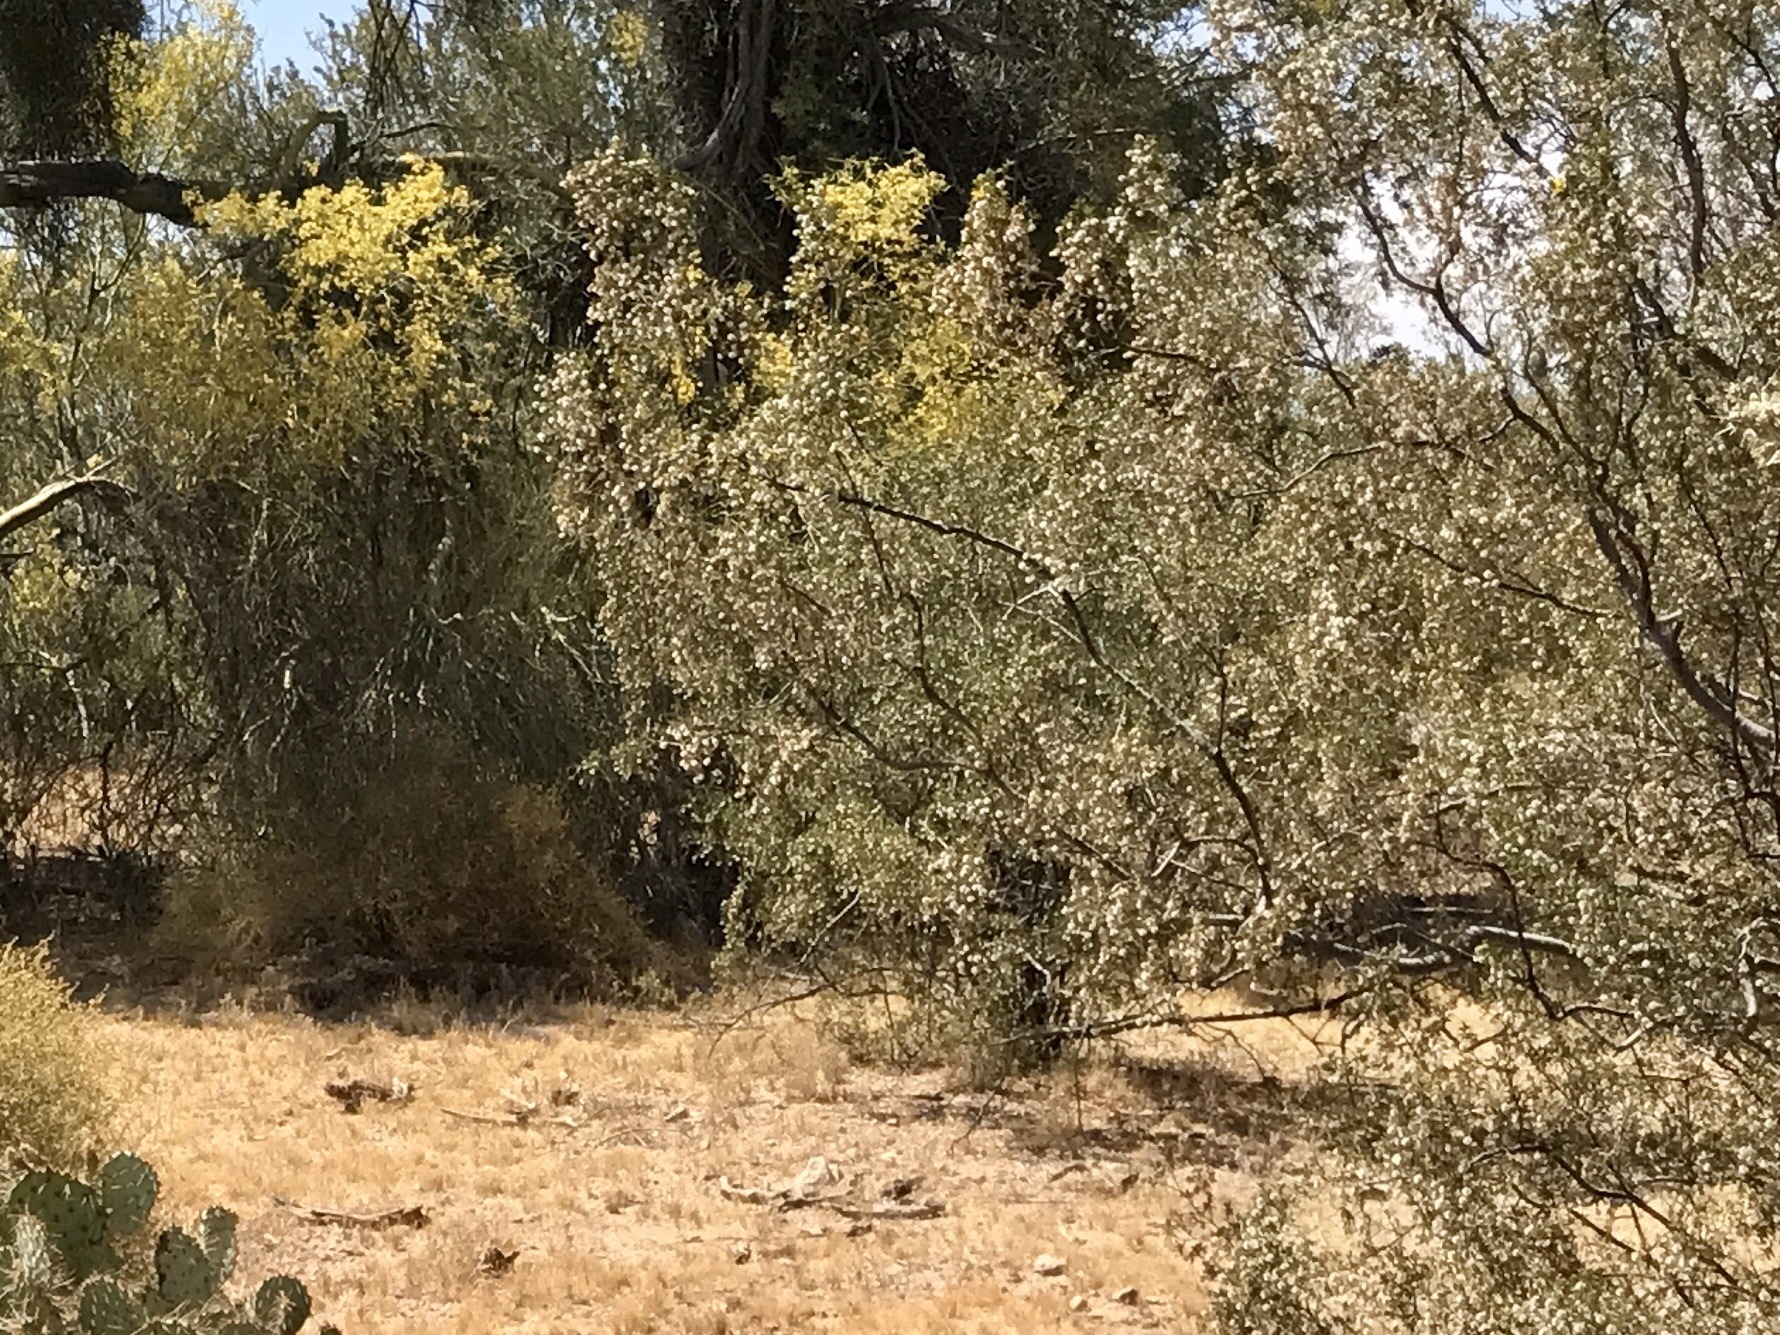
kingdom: Plantae
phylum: Tracheophyta
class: Magnoliopsida
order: Zygophyllales
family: Zygophyllaceae
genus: Larrea
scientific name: Larrea tridentata
